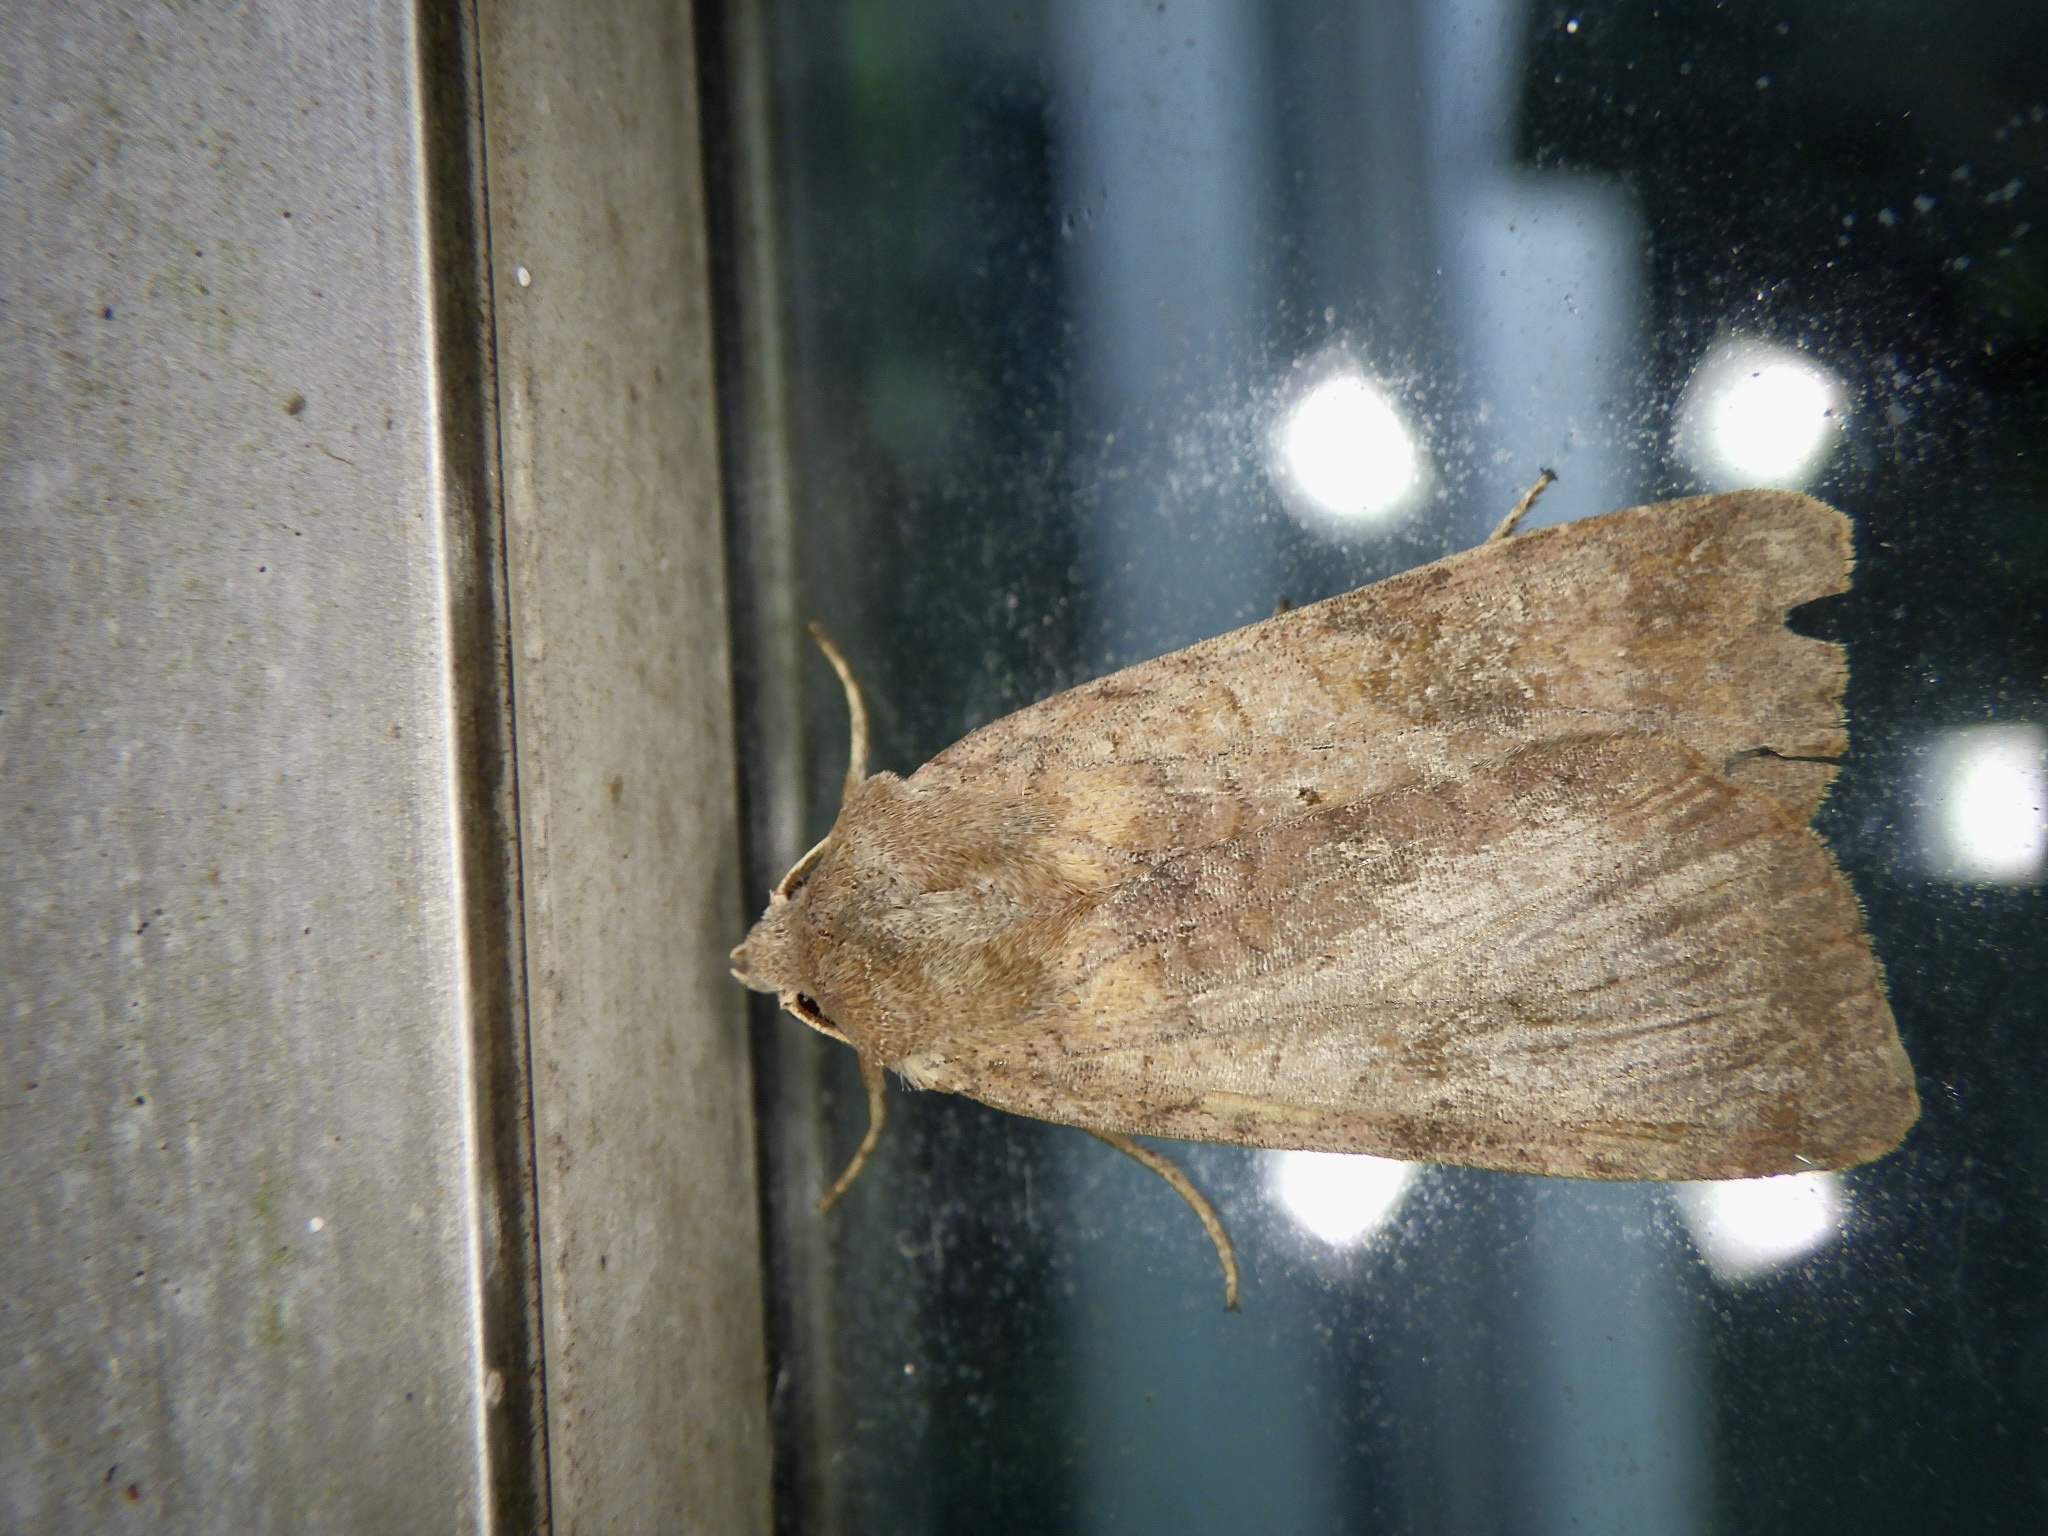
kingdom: Animalia
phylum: Arthropoda
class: Insecta
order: Lepidoptera
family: Noctuidae
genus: Diarsia
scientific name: Diarsia canescens
